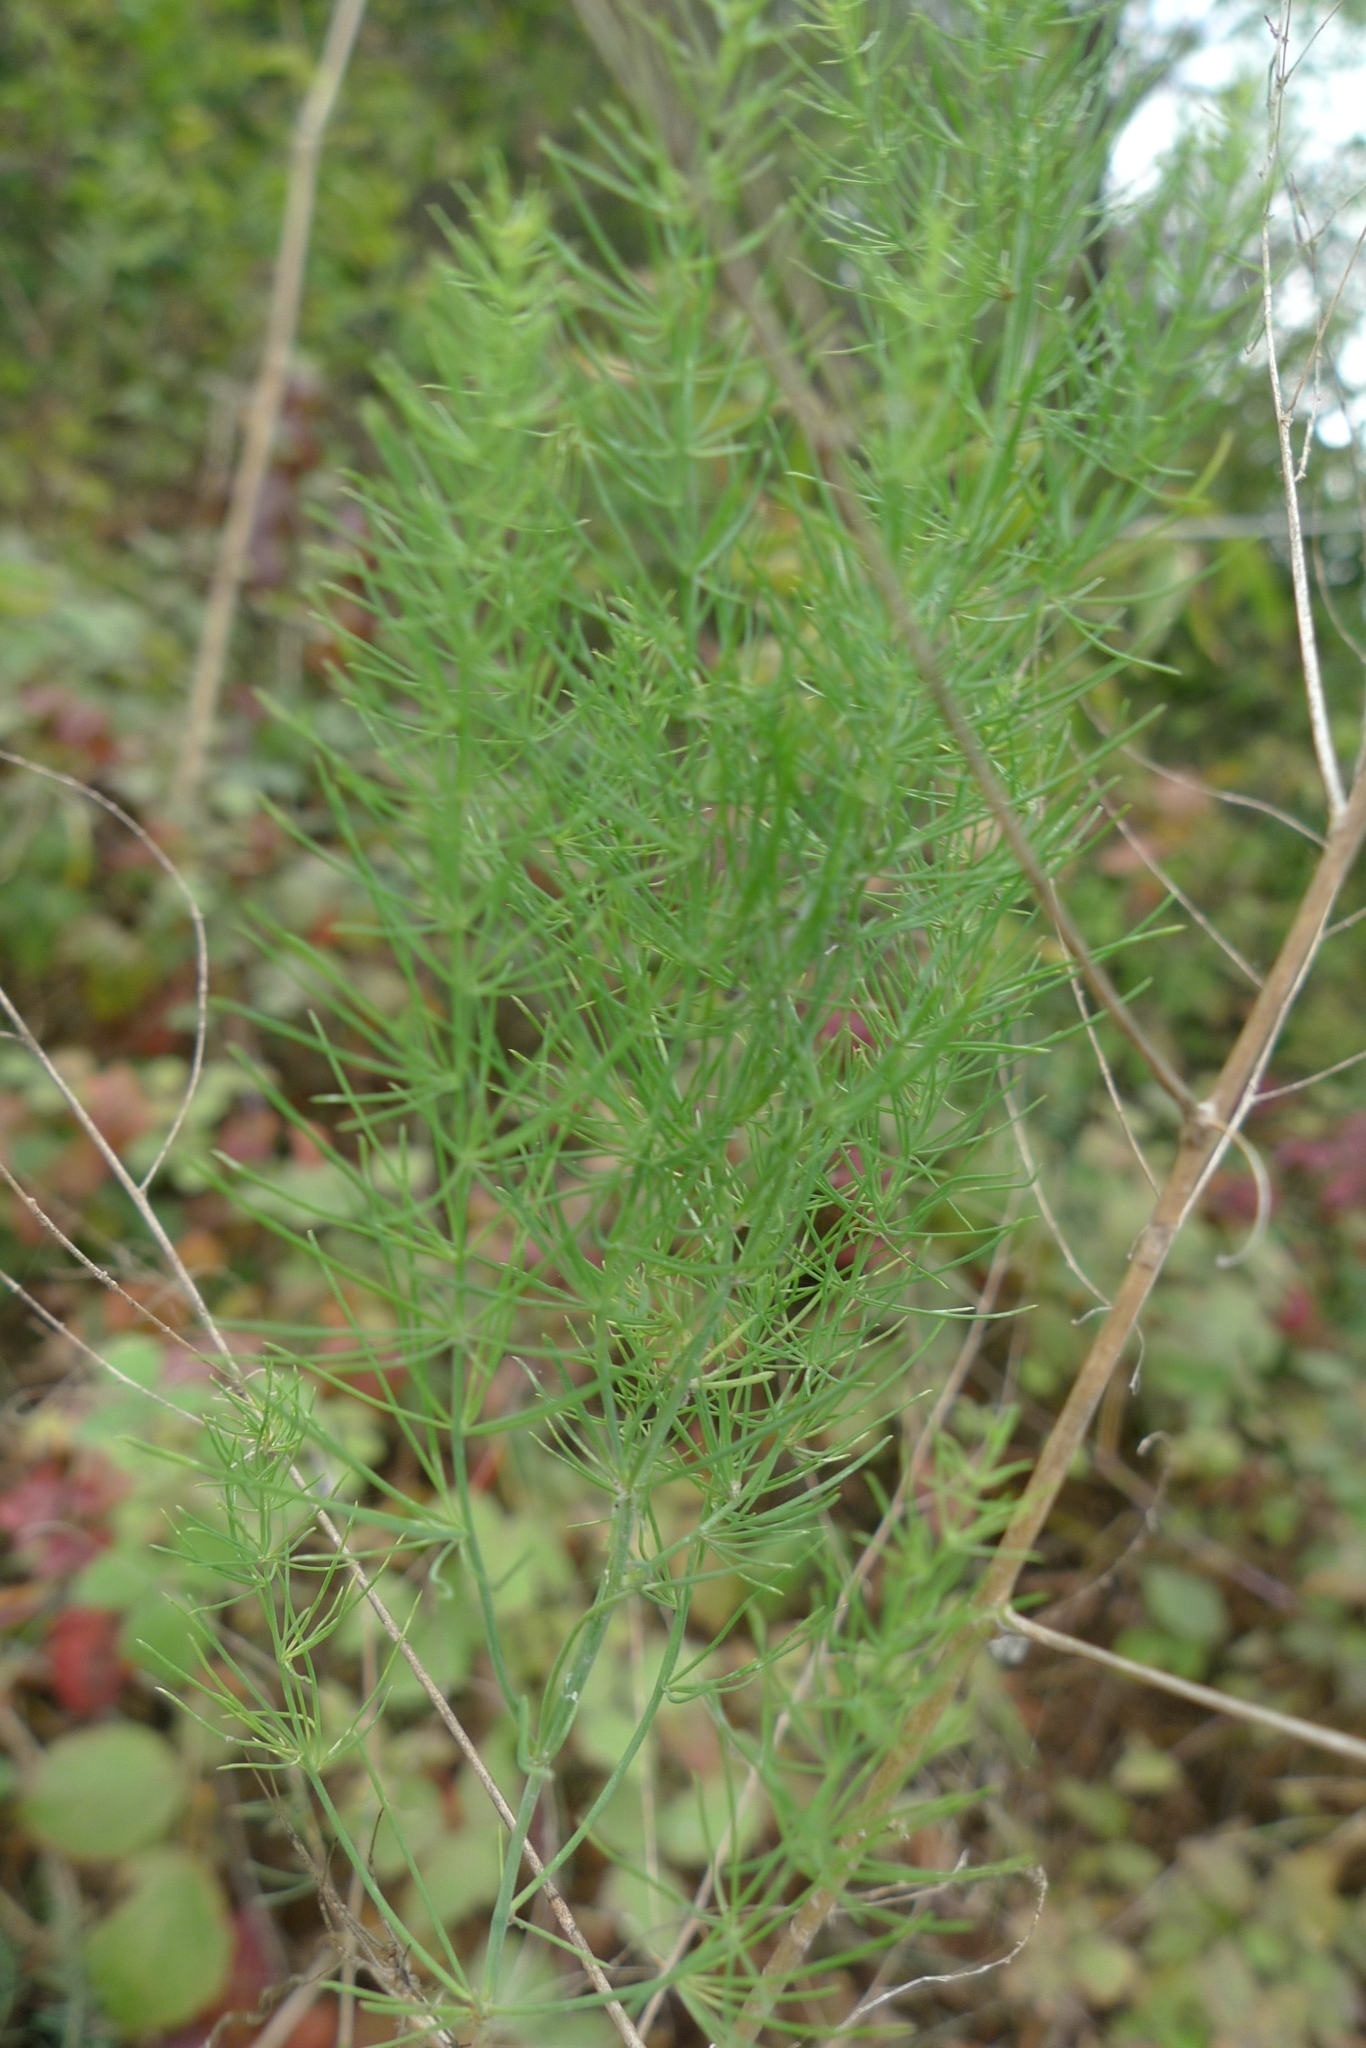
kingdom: Plantae
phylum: Tracheophyta
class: Liliopsida
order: Asparagales
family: Asparagaceae
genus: Asparagus
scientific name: Asparagus officinalis
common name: Garden asparagus
